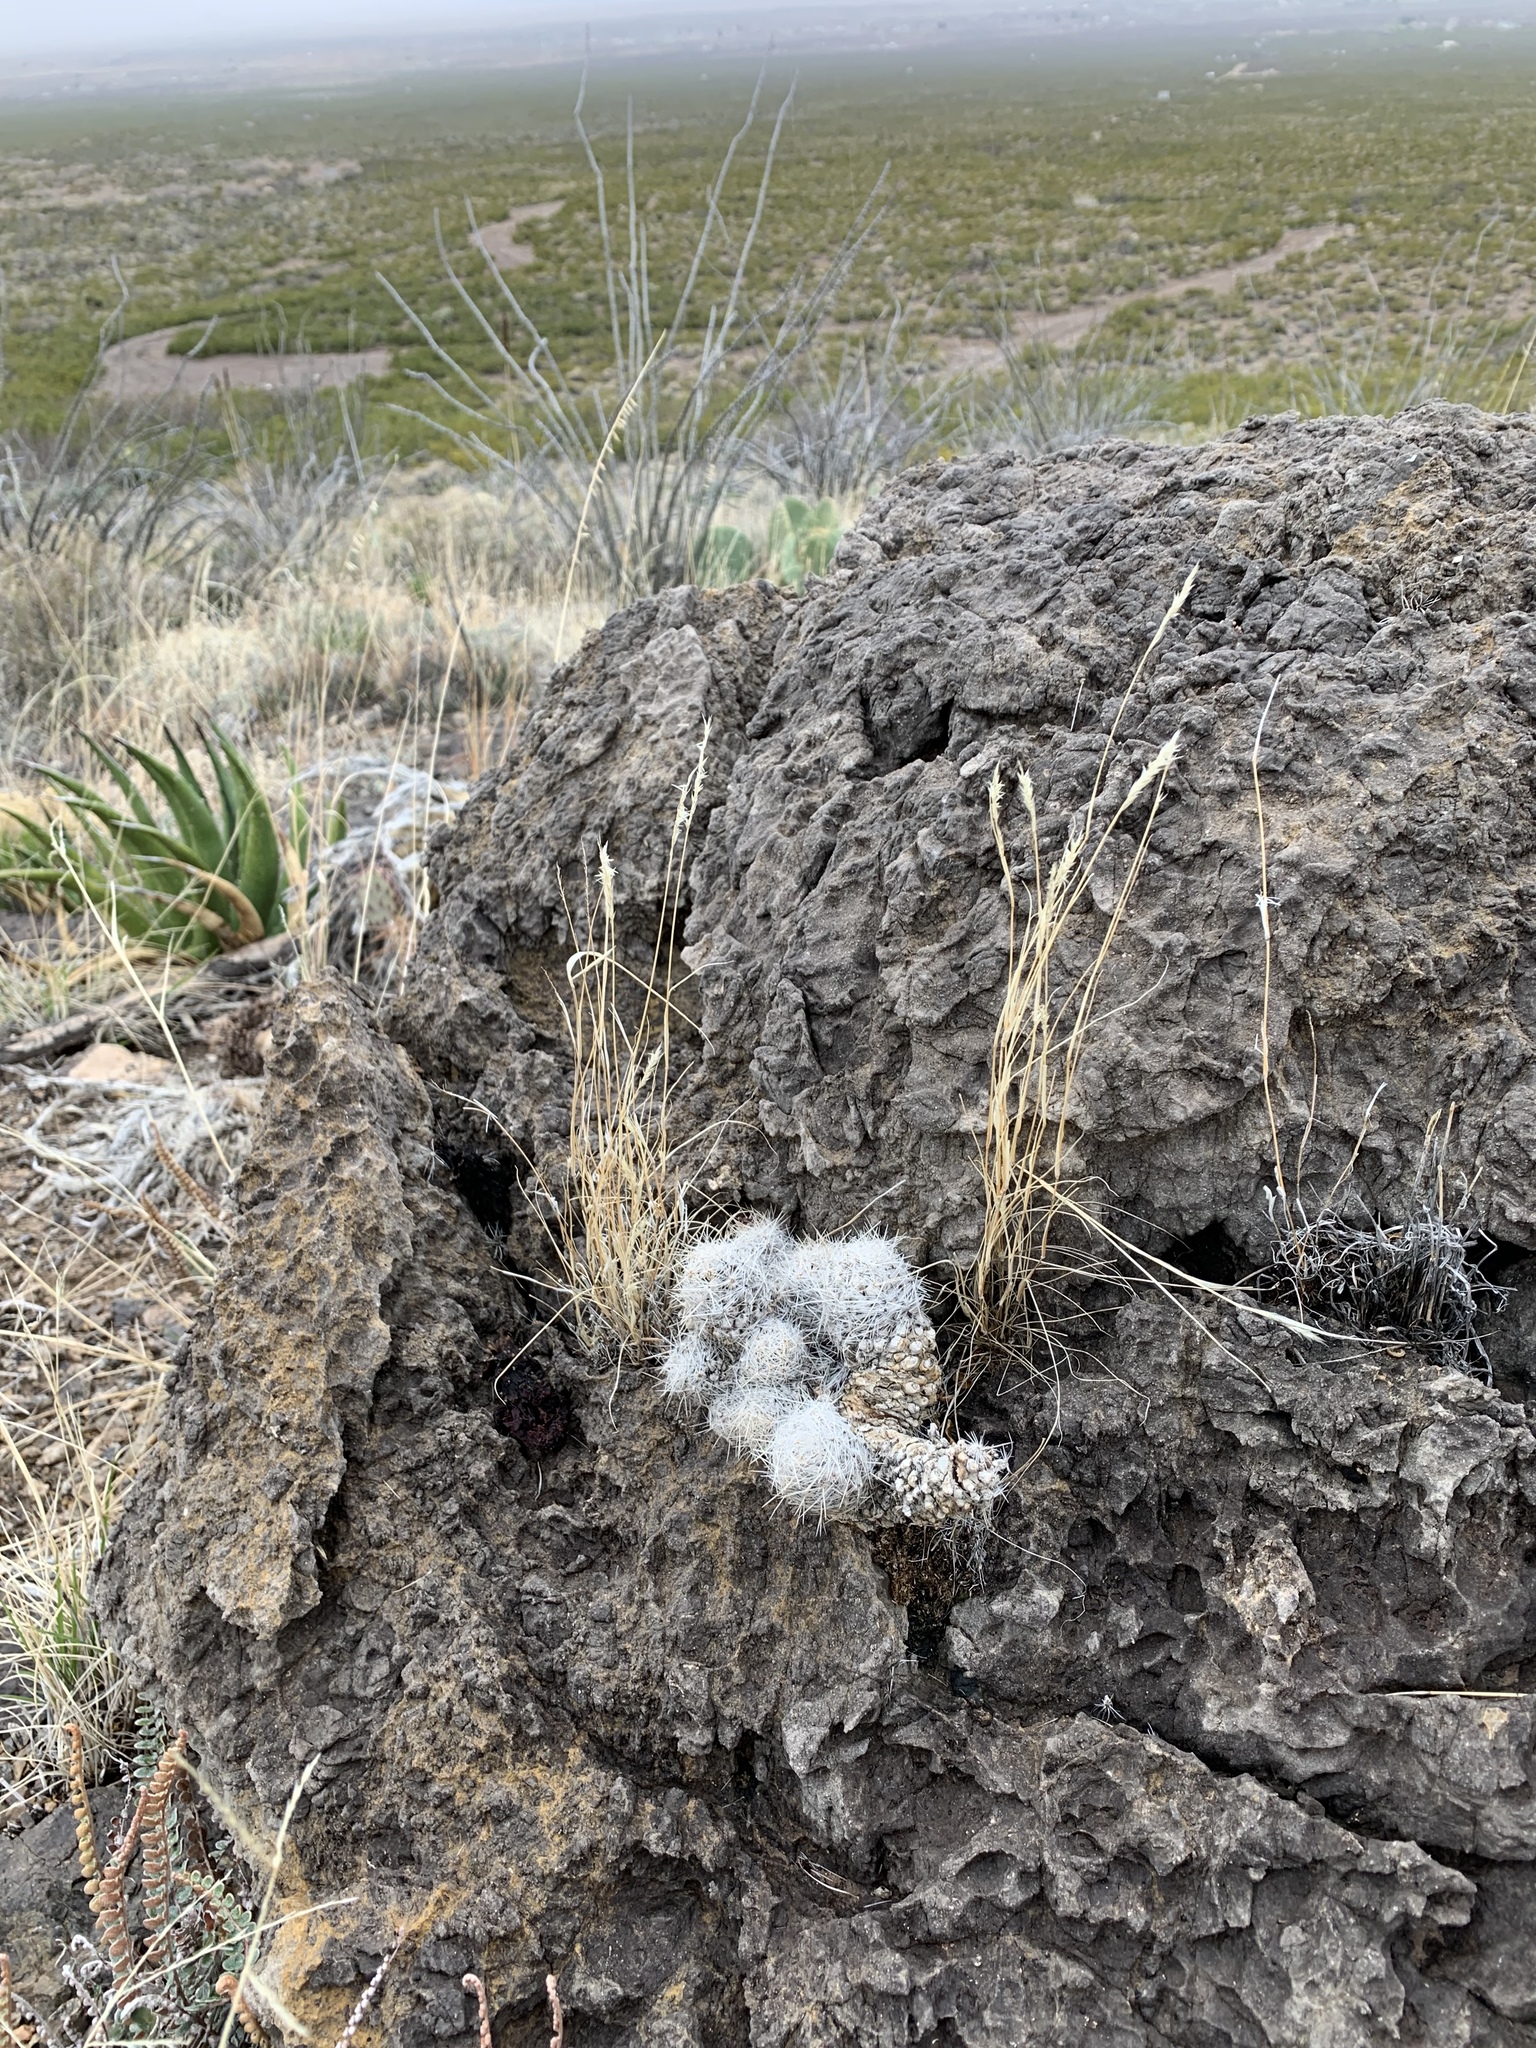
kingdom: Plantae
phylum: Tracheophyta
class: Magnoliopsida
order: Caryophyllales
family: Cactaceae
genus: Pelecyphora
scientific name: Pelecyphora tuberculosa
